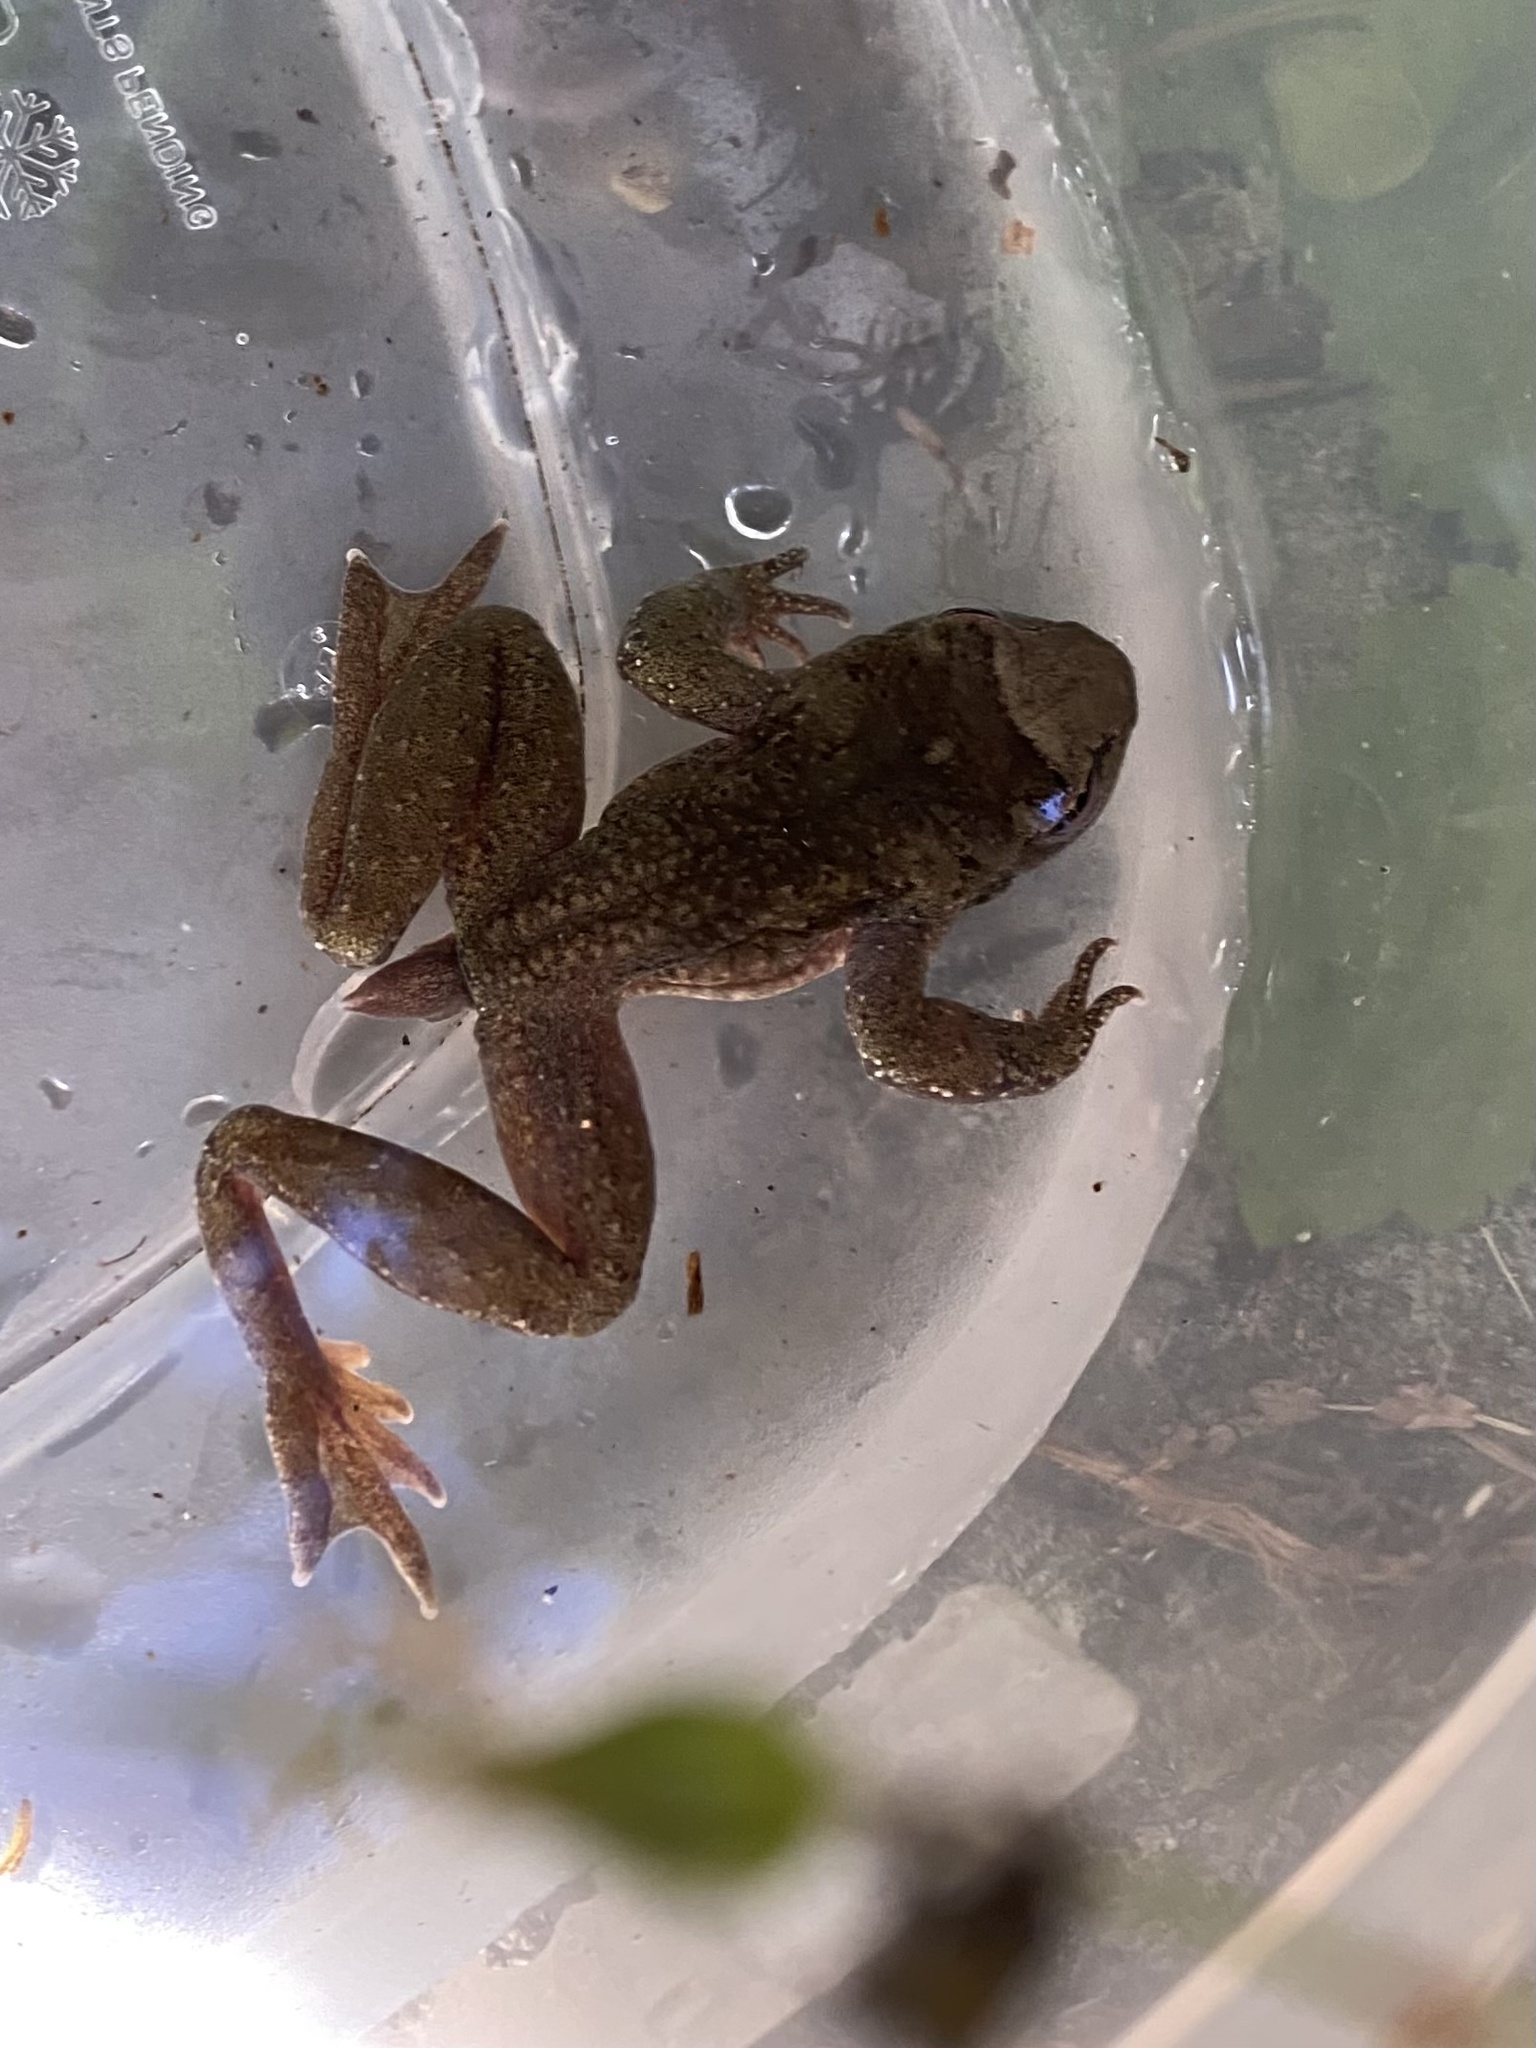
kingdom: Animalia
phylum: Chordata
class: Amphibia
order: Anura
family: Ascaphidae
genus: Ascaphus
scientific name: Ascaphus truei
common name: Tailed frog
